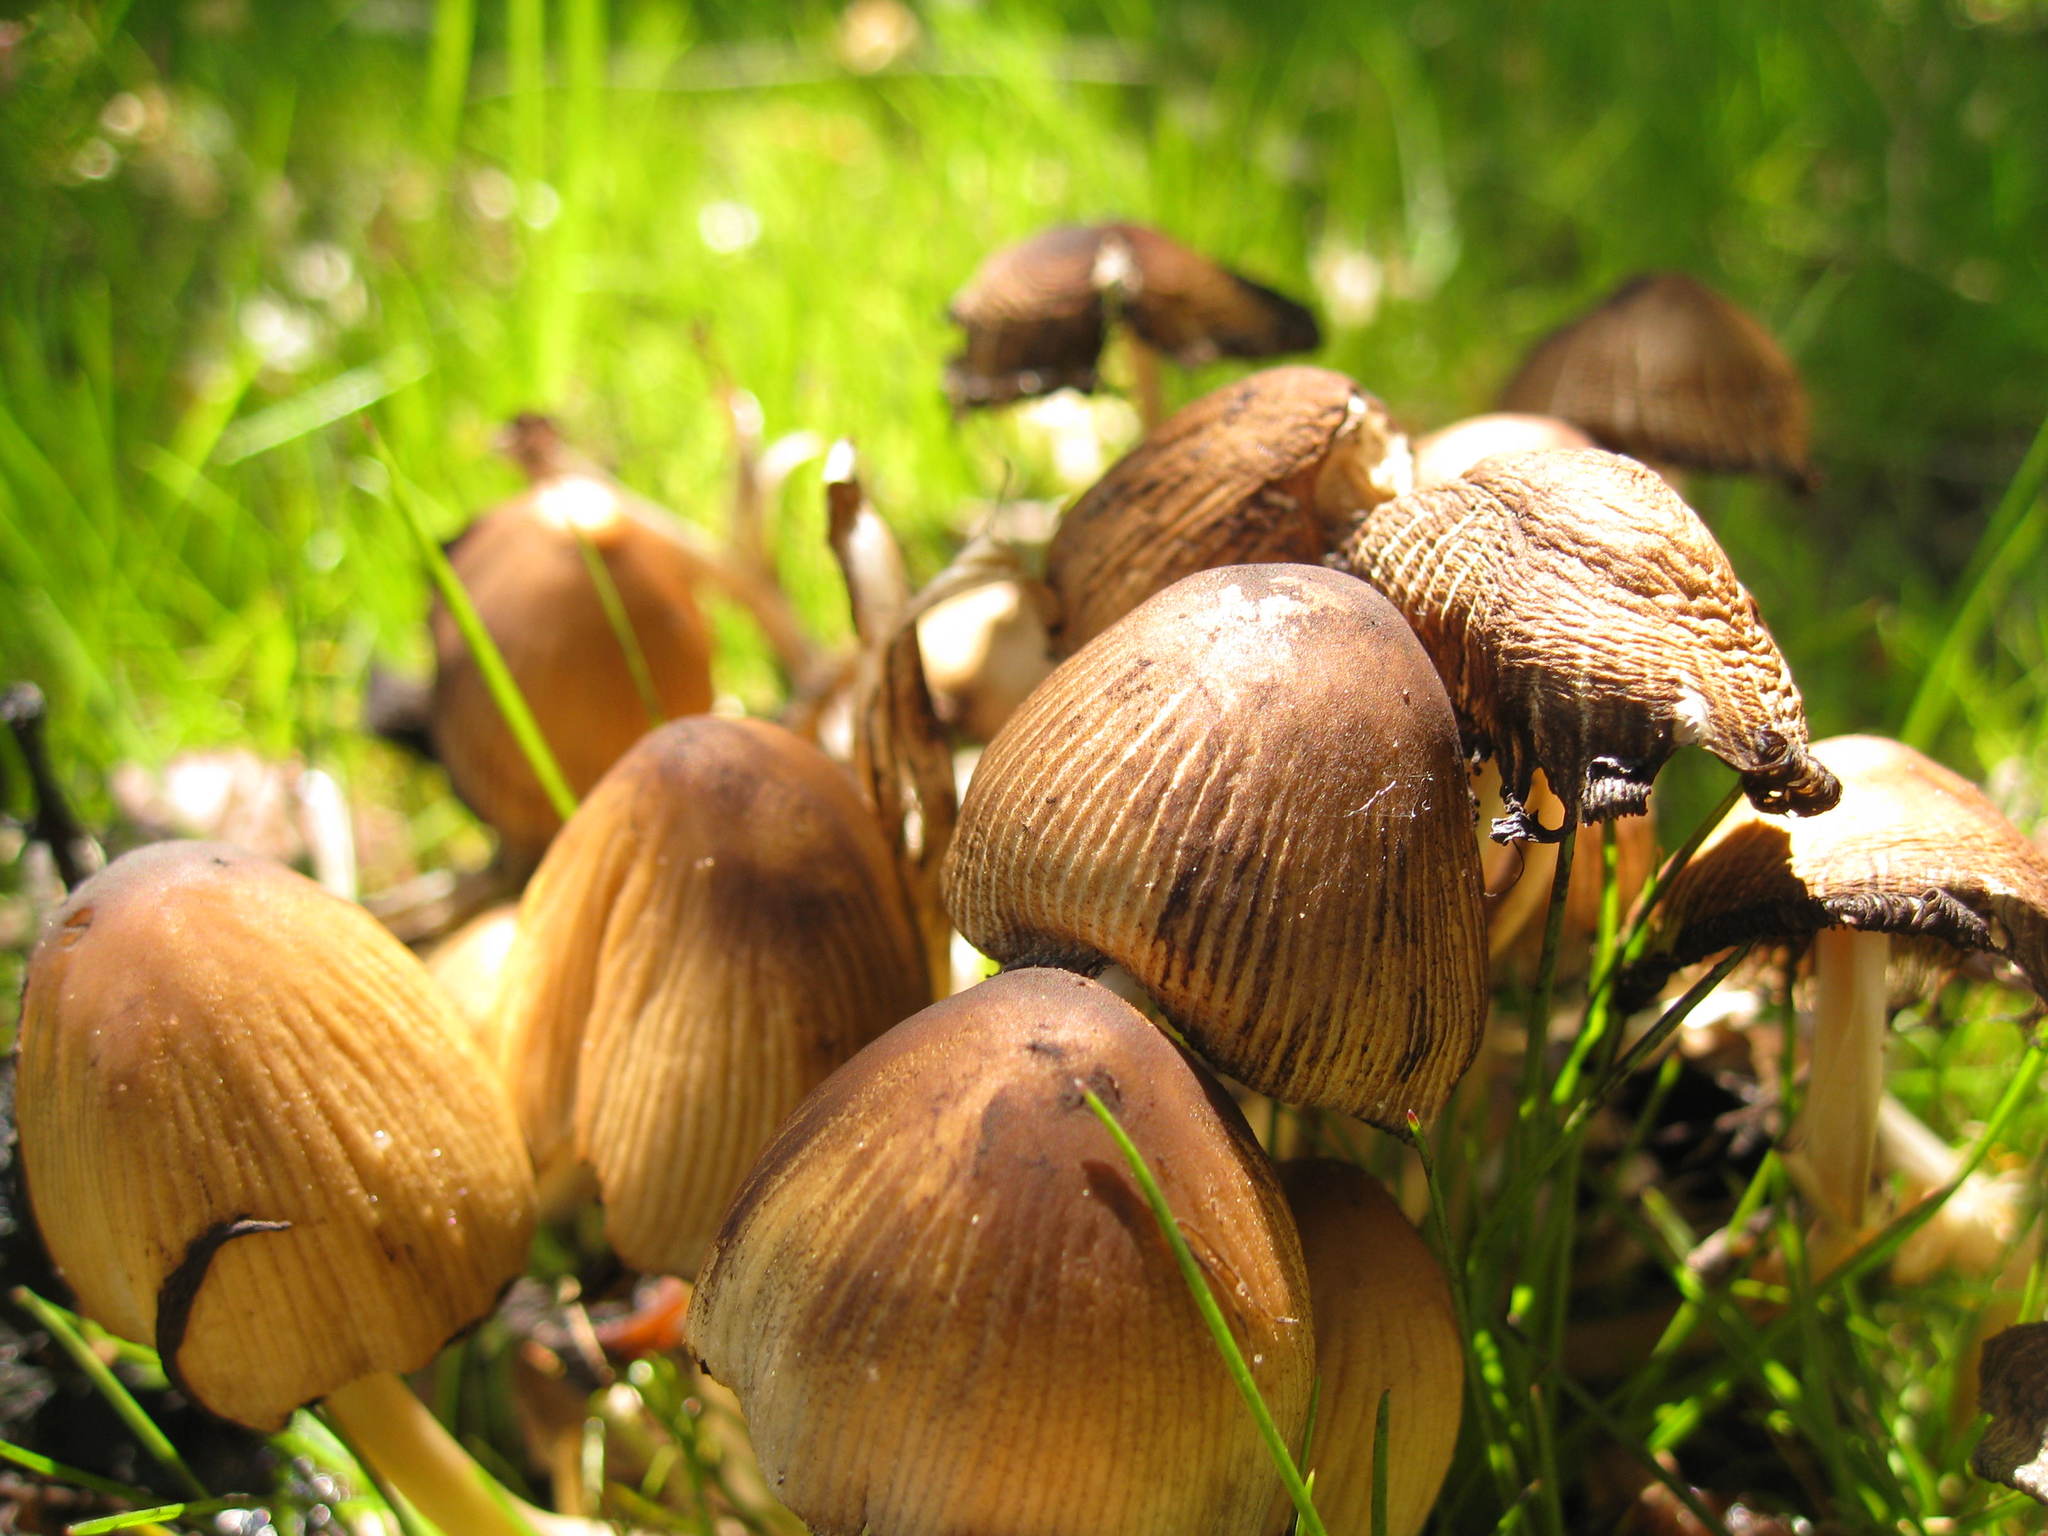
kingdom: Fungi
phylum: Basidiomycota
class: Agaricomycetes
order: Agaricales
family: Psathyrellaceae
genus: Coprinellus
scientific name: Coprinellus micaceus
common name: Glistening ink-cap
